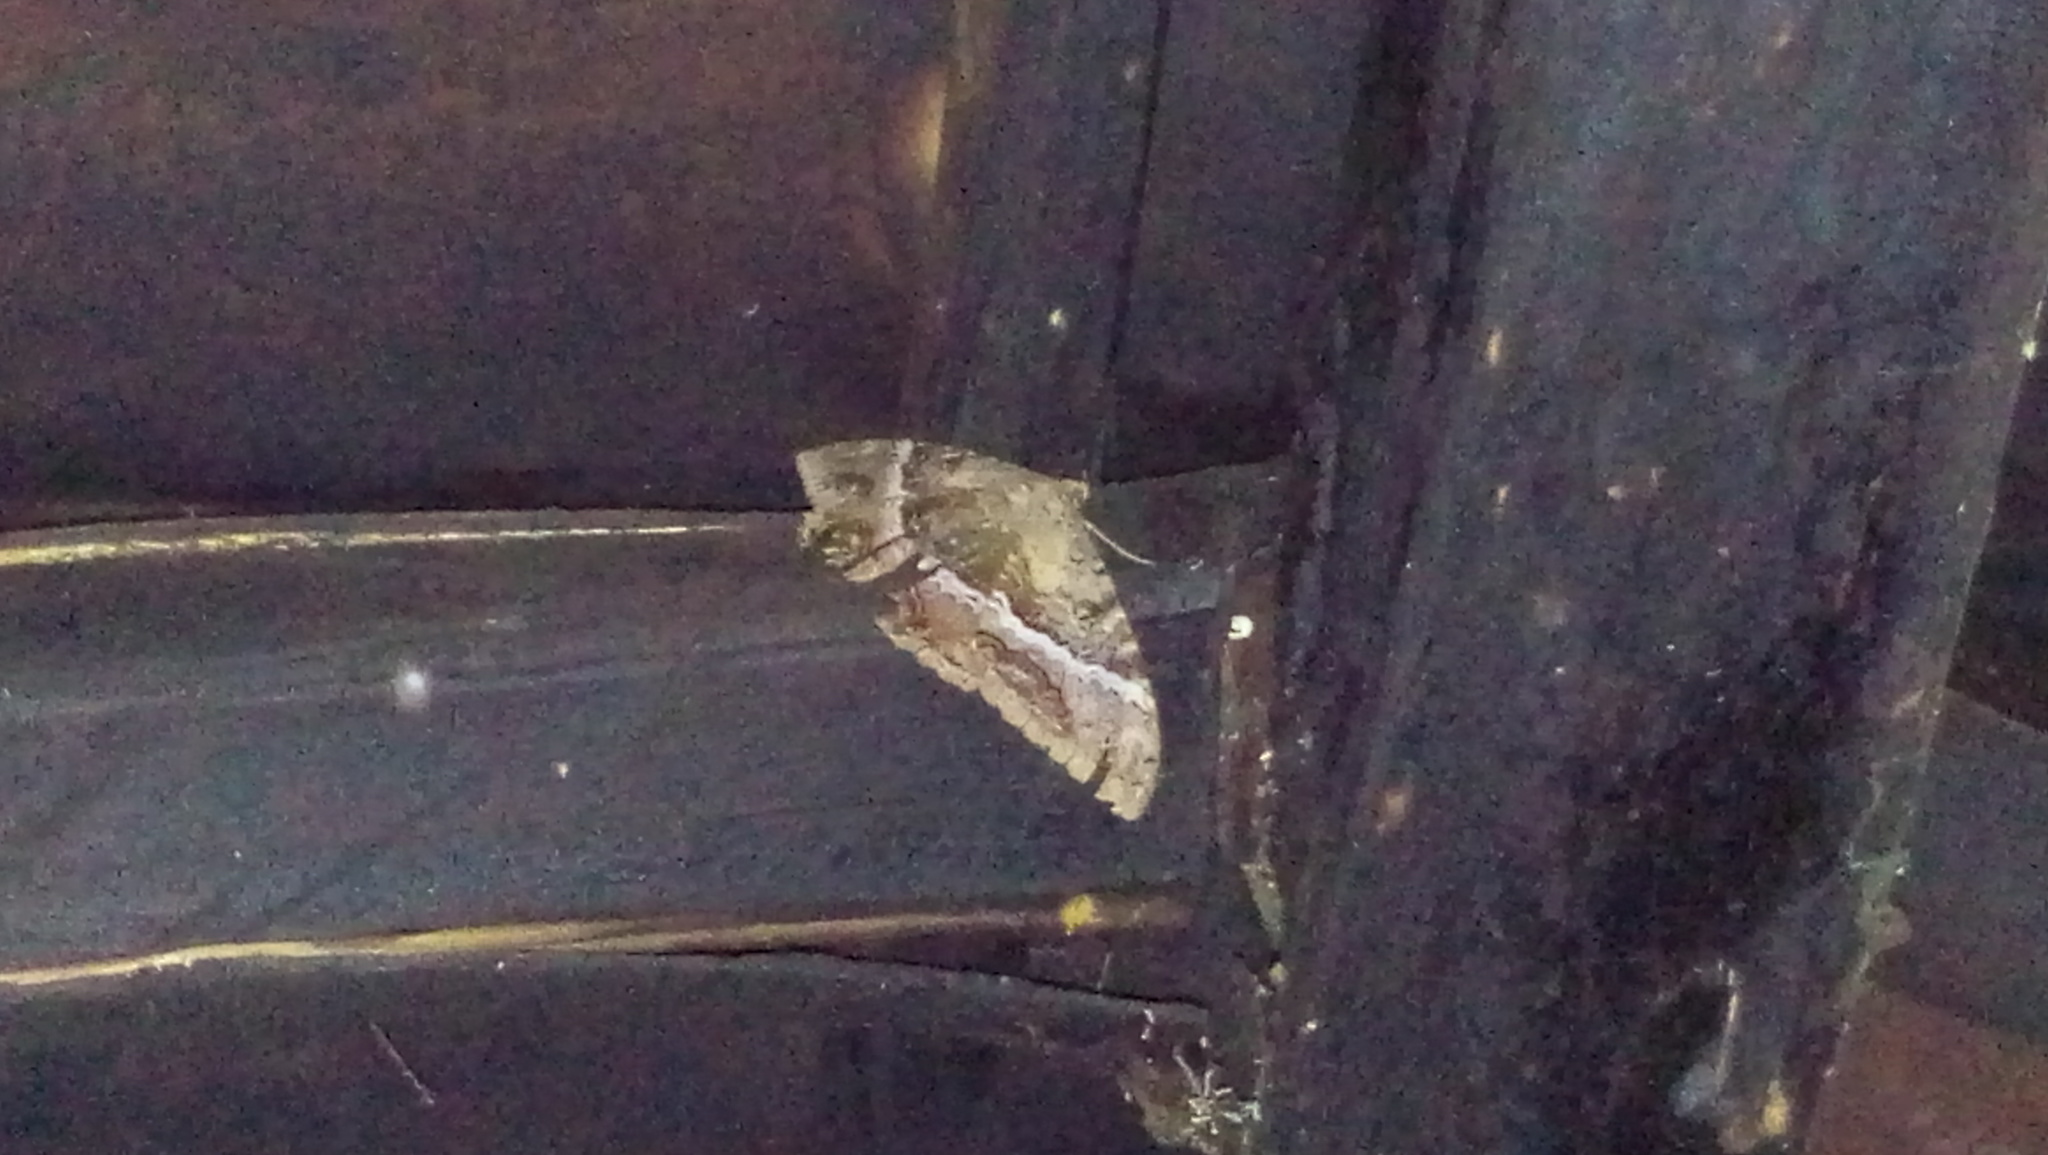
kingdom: Animalia
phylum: Arthropoda
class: Insecta
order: Lepidoptera
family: Erebidae
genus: Ascalapha
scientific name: Ascalapha odorata
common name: Black witch
